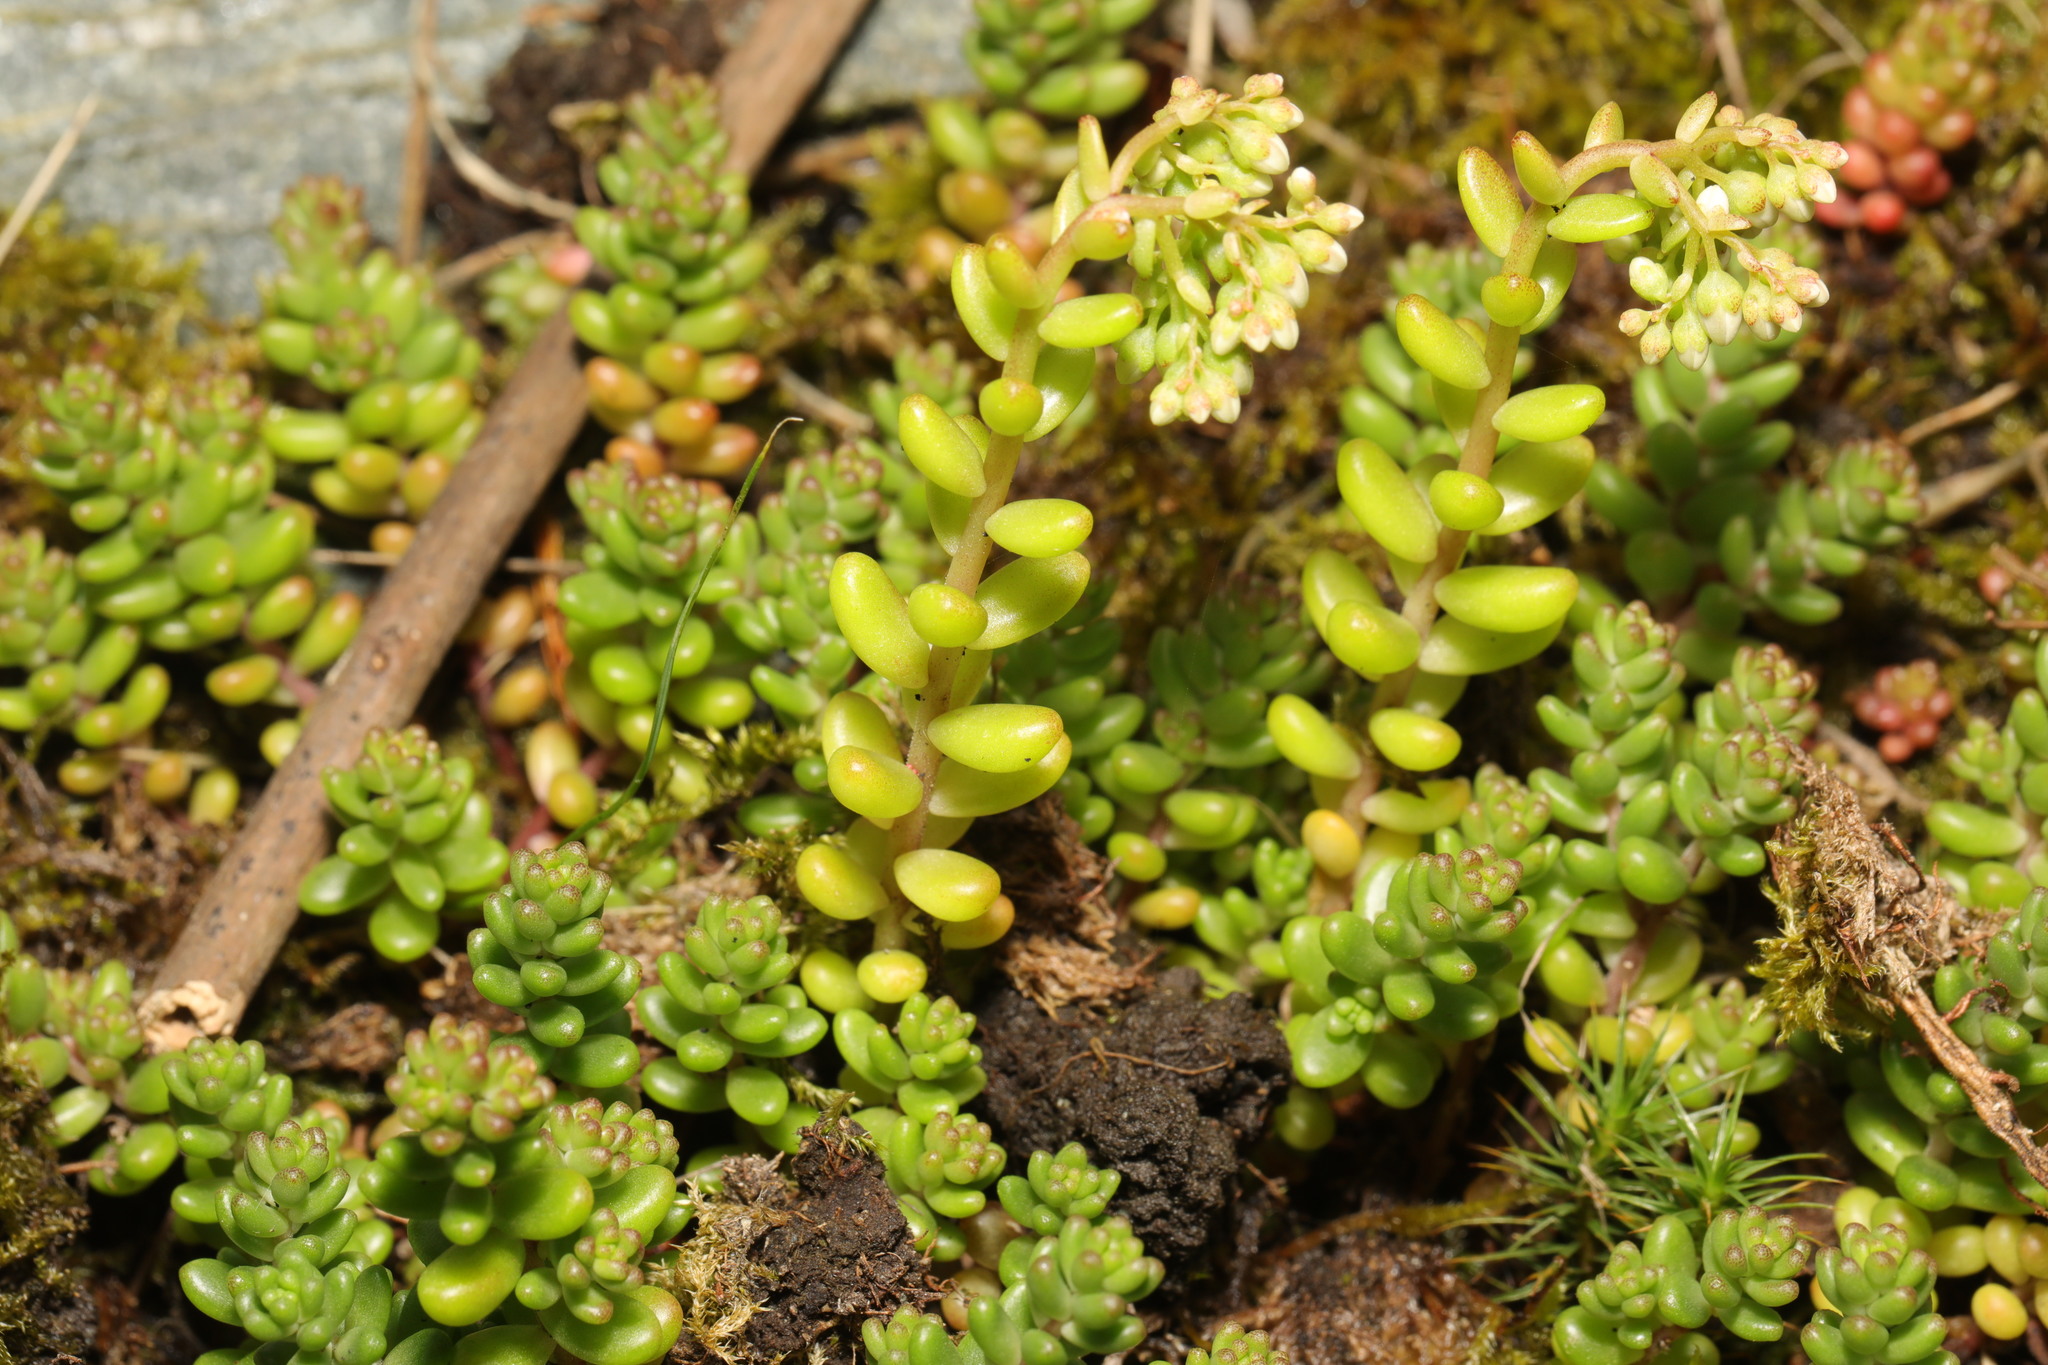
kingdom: Plantae
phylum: Tracheophyta
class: Magnoliopsida
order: Saxifragales
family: Crassulaceae
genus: Sedum
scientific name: Sedum album
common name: White stonecrop
